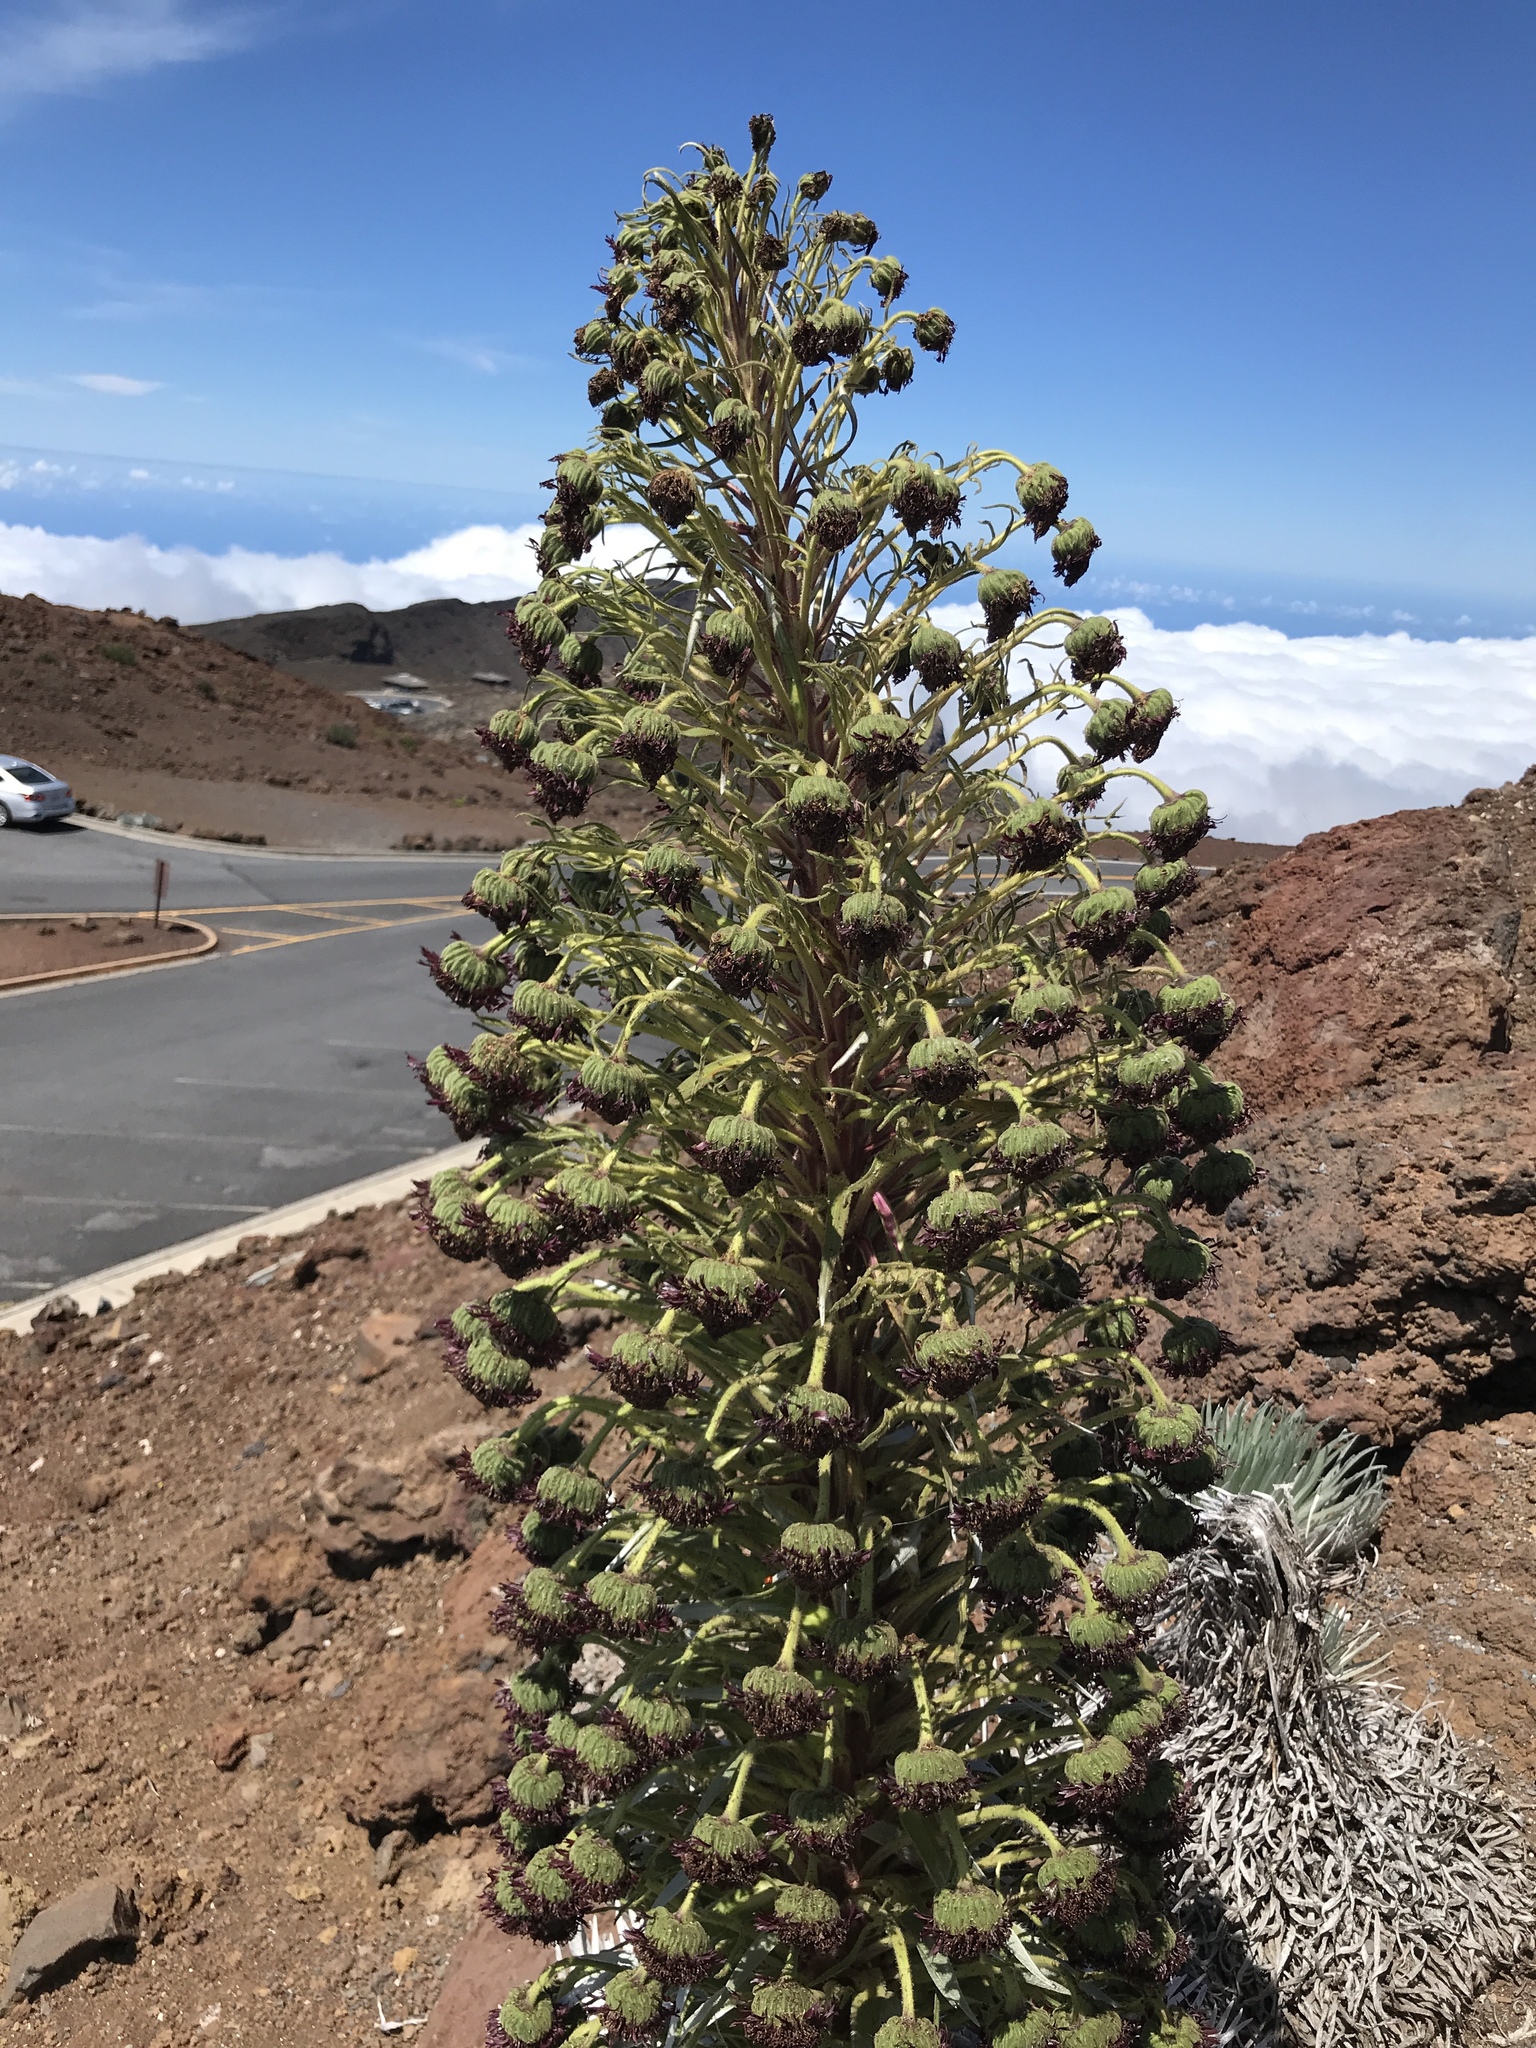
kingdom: Plantae
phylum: Tracheophyta
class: Magnoliopsida
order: Asterales
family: Asteraceae
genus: Argyroxiphium
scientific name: Argyroxiphium sandwicense
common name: Silversword
